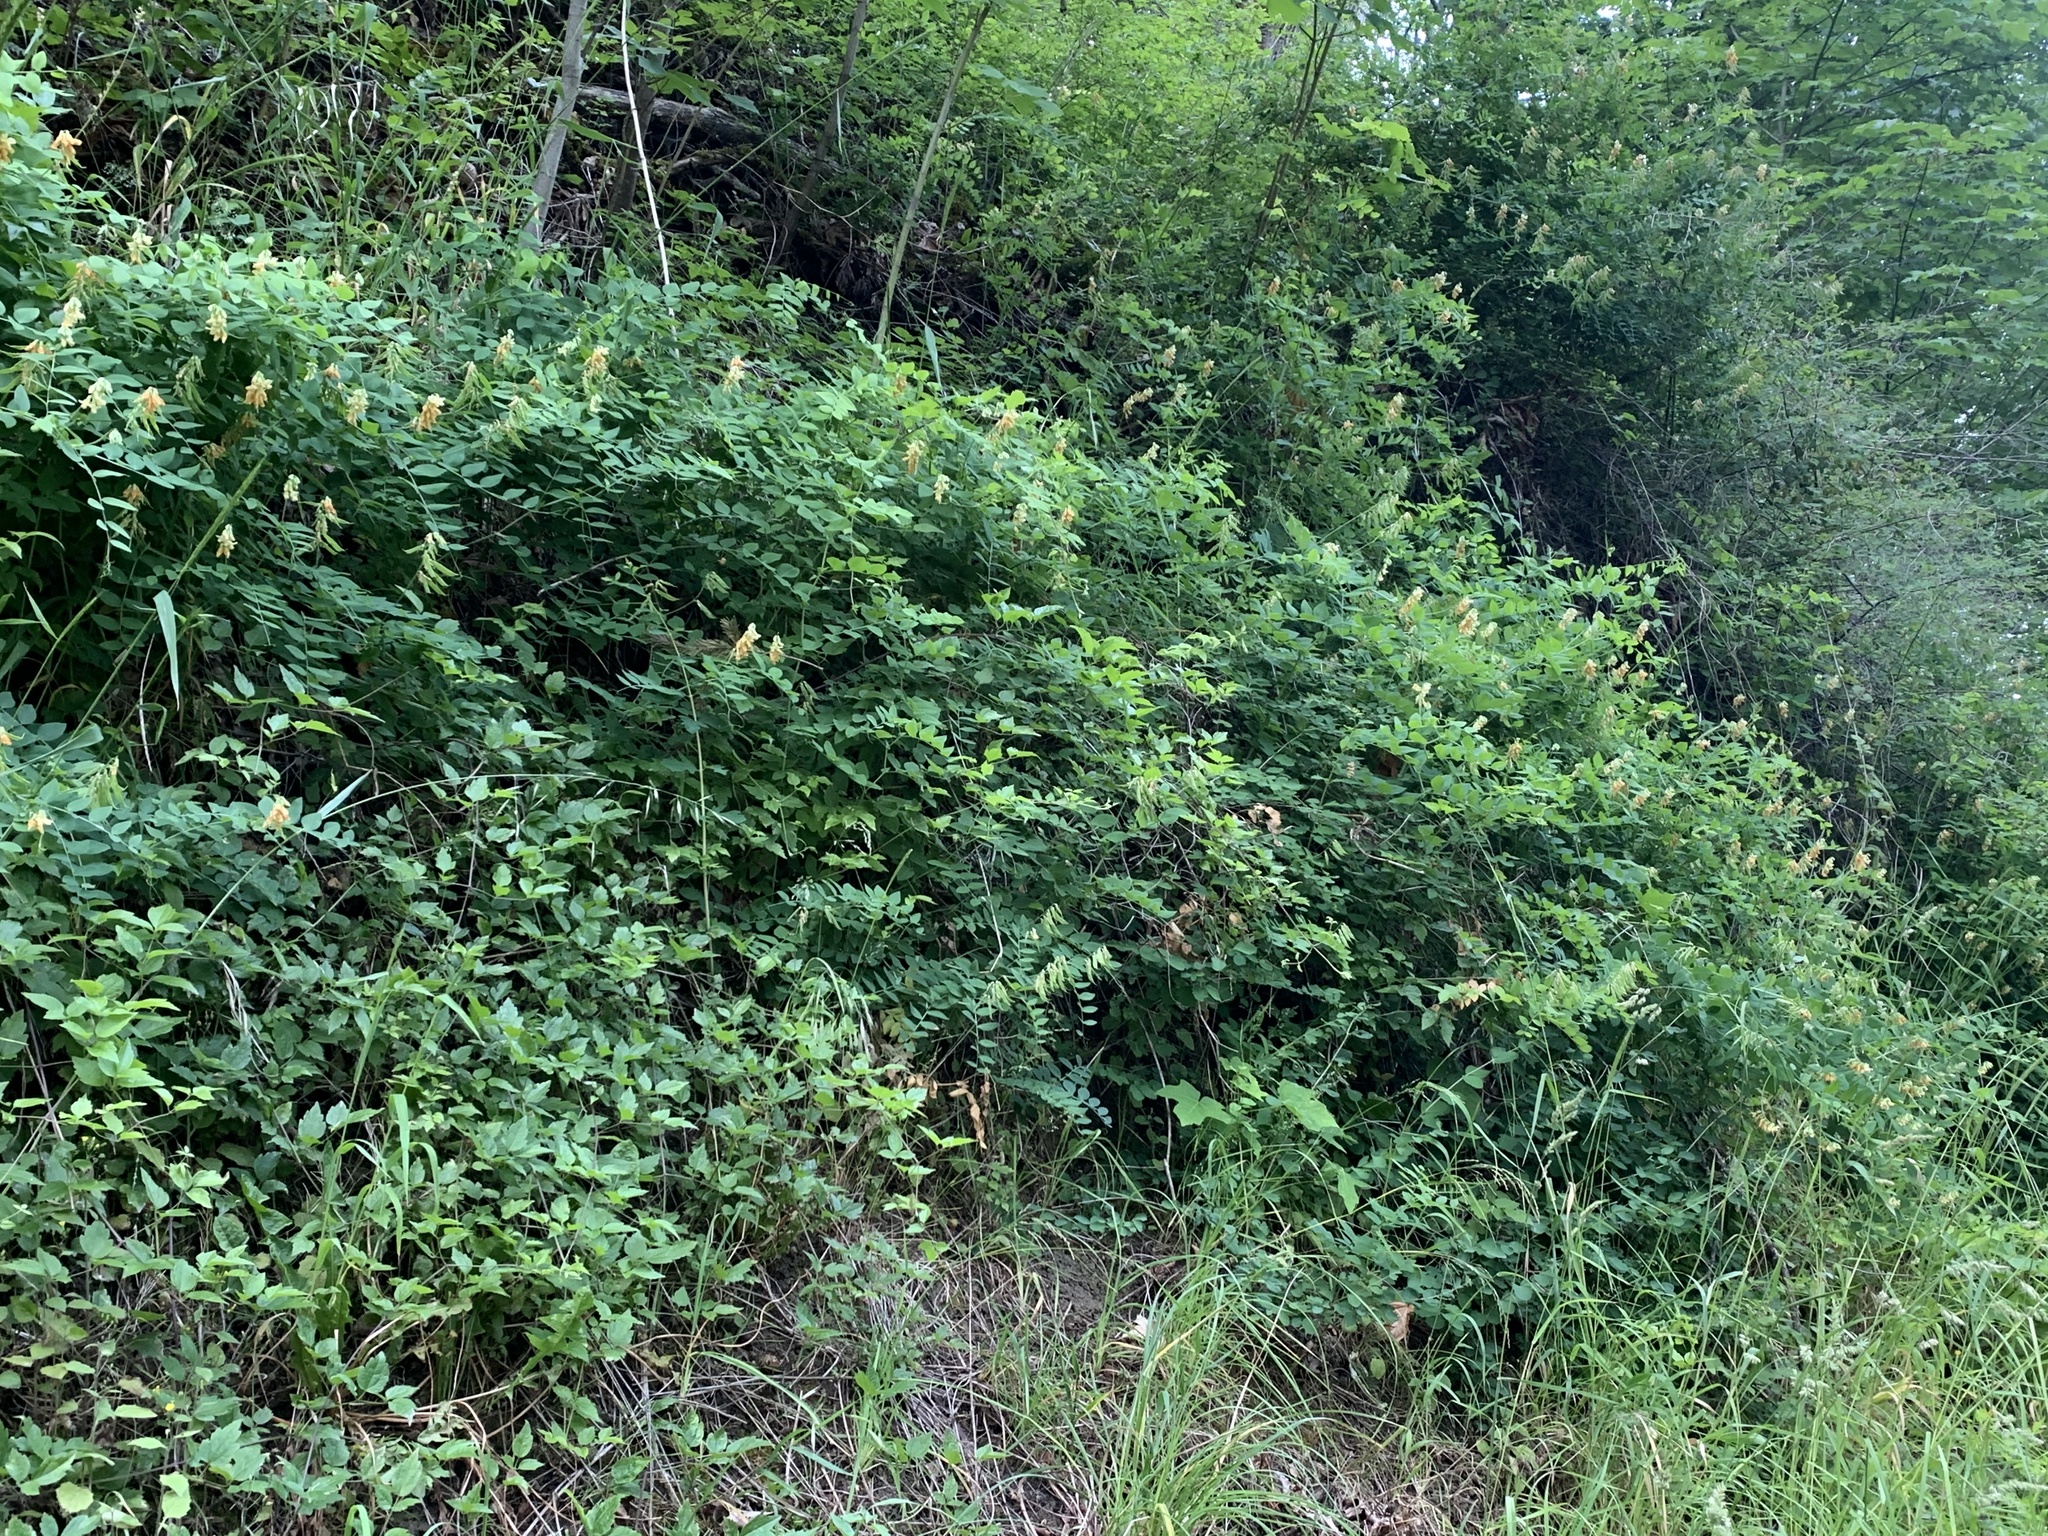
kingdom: Plantae
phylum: Tracheophyta
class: Magnoliopsida
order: Fabales
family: Fabaceae
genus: Lathyrus
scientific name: Lathyrus vestitus
